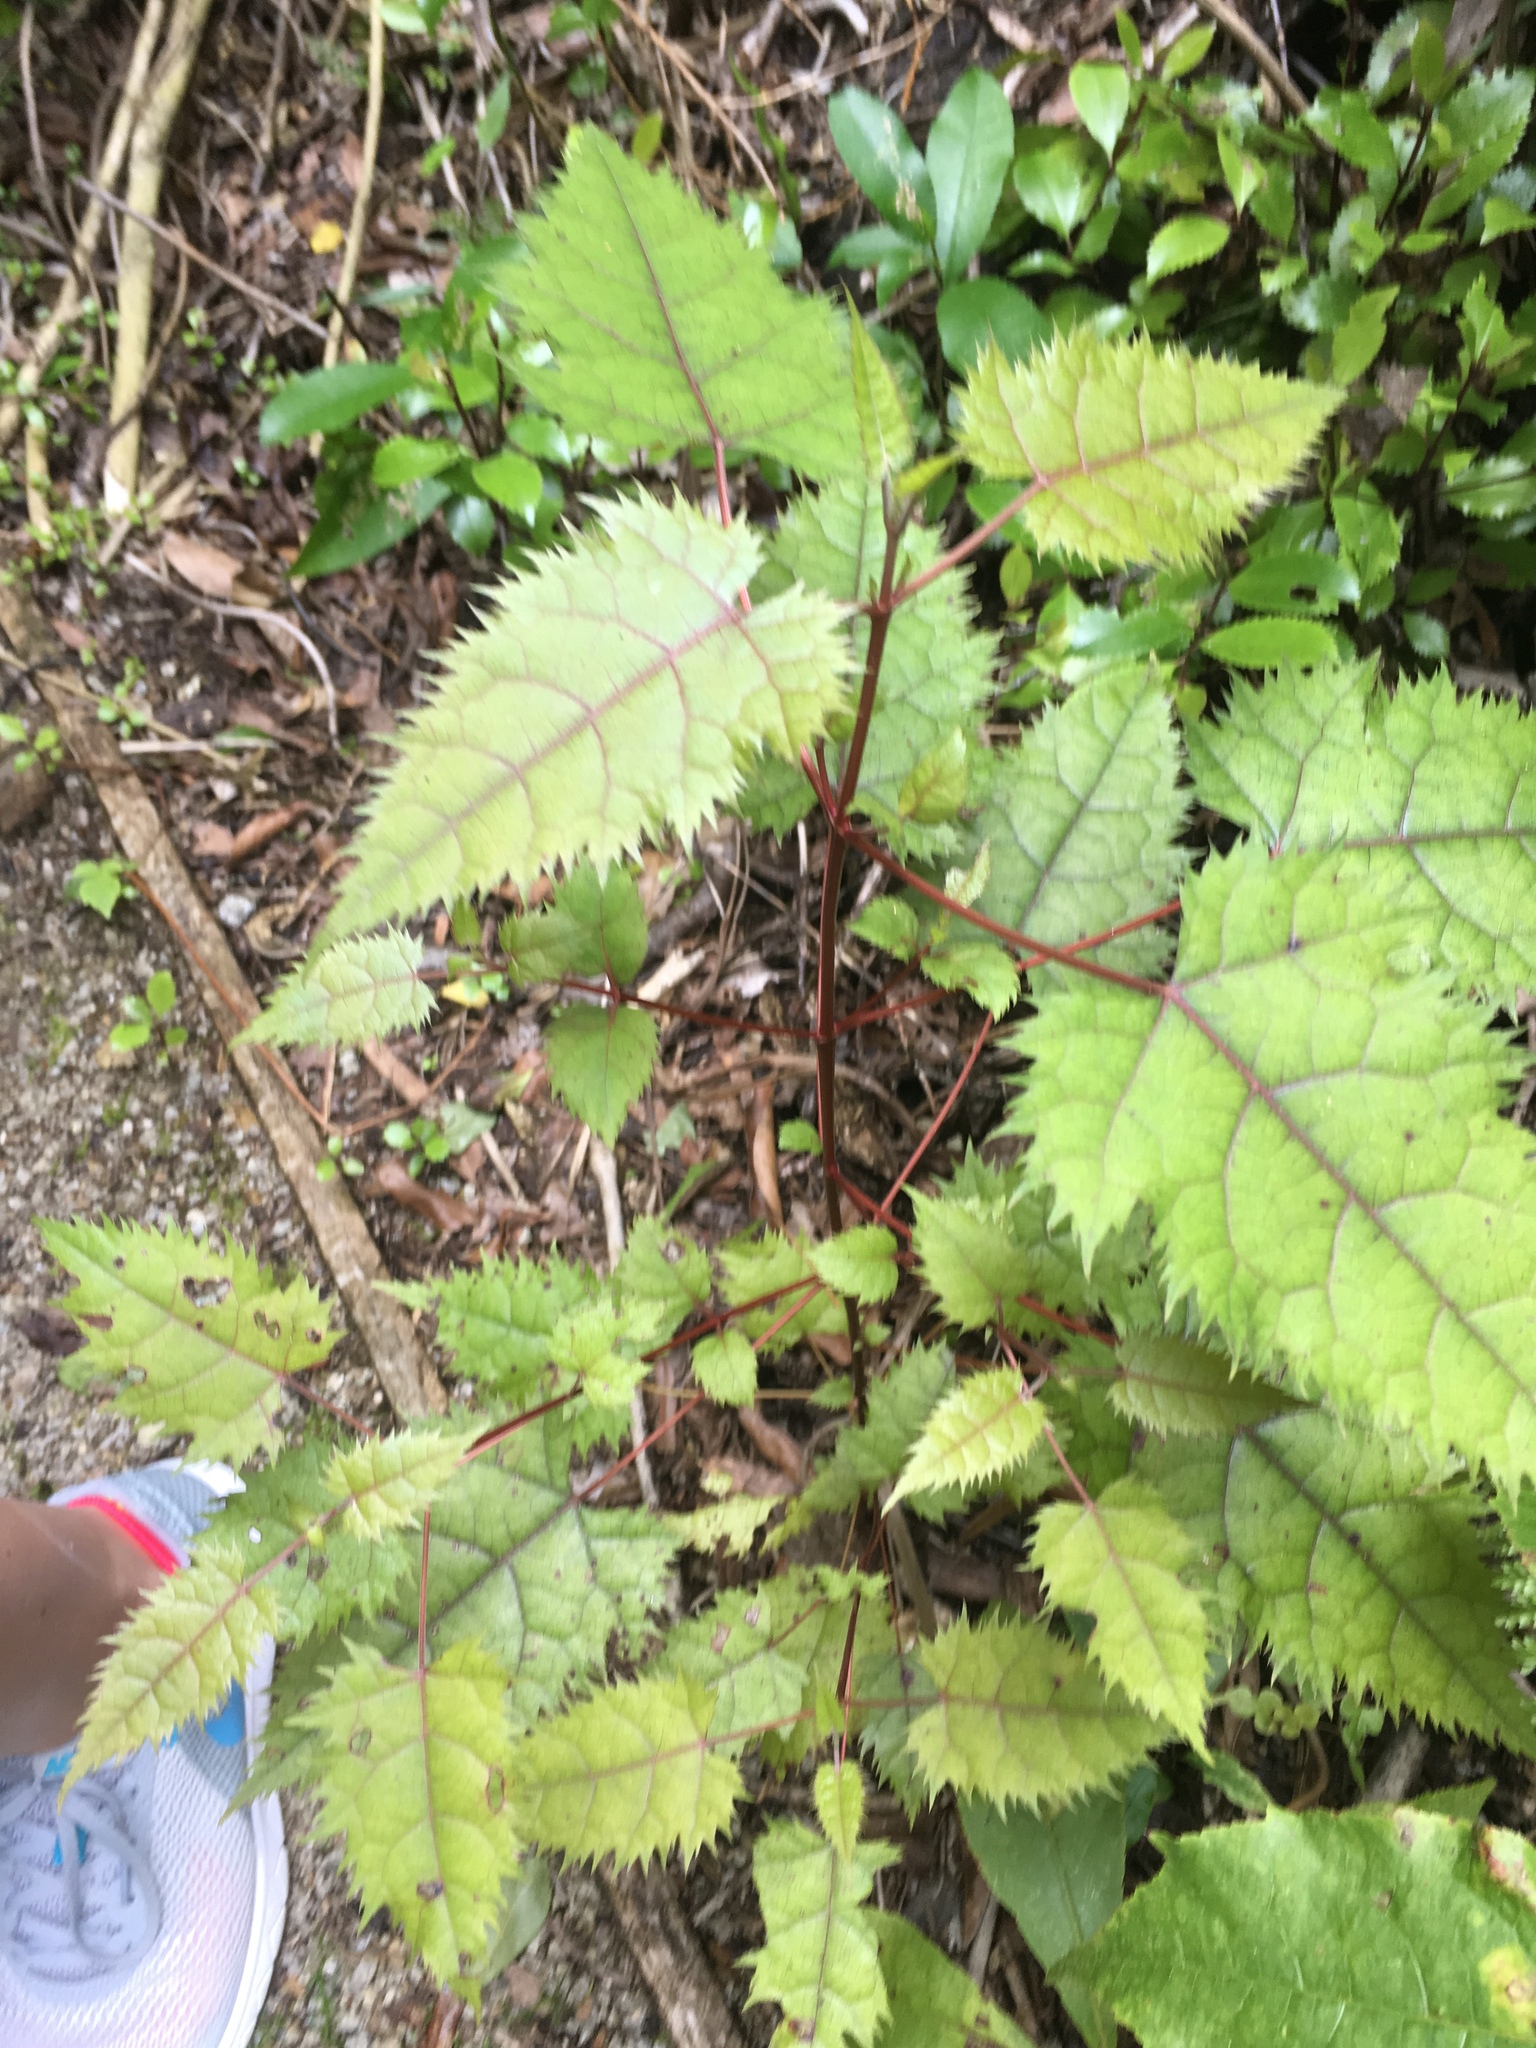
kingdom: Plantae
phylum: Tracheophyta
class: Magnoliopsida
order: Oxalidales
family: Elaeocarpaceae
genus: Aristotelia
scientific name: Aristotelia serrata
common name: New zealand wineberry
